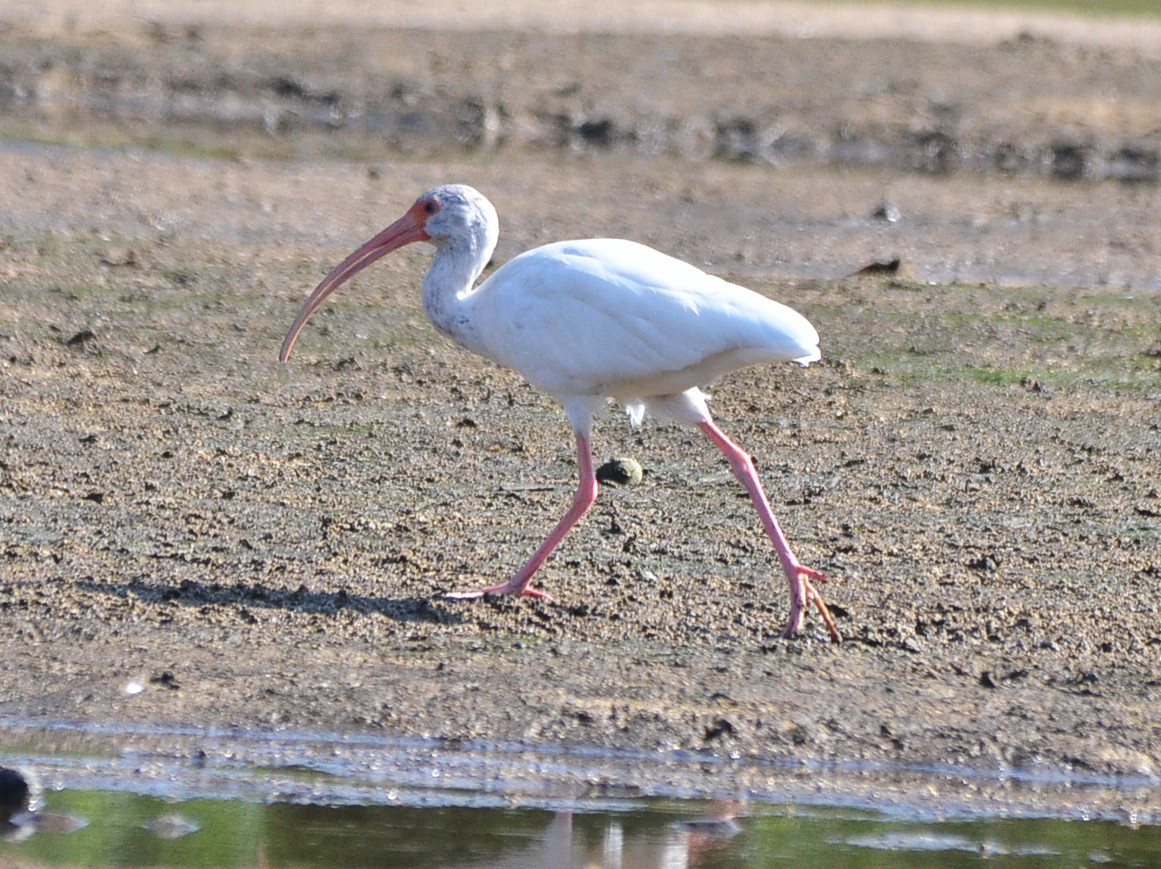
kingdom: Animalia
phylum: Chordata
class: Aves
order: Pelecaniformes
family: Threskiornithidae
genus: Eudocimus
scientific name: Eudocimus albus
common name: White ibis
